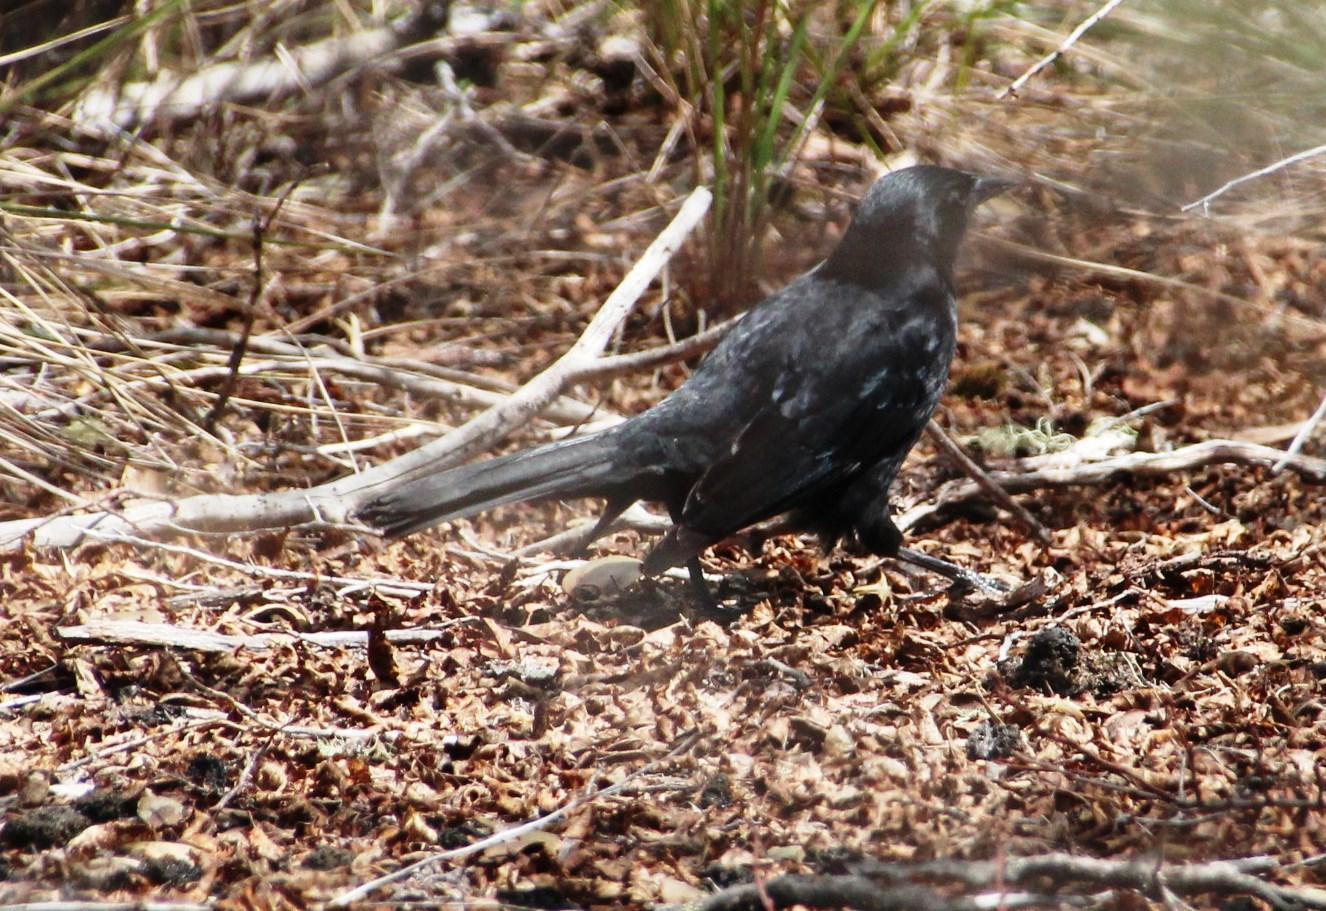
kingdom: Animalia
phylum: Chordata
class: Aves
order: Passeriformes
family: Icteridae
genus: Curaeus
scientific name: Curaeus curaeus
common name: Austral blackbird
